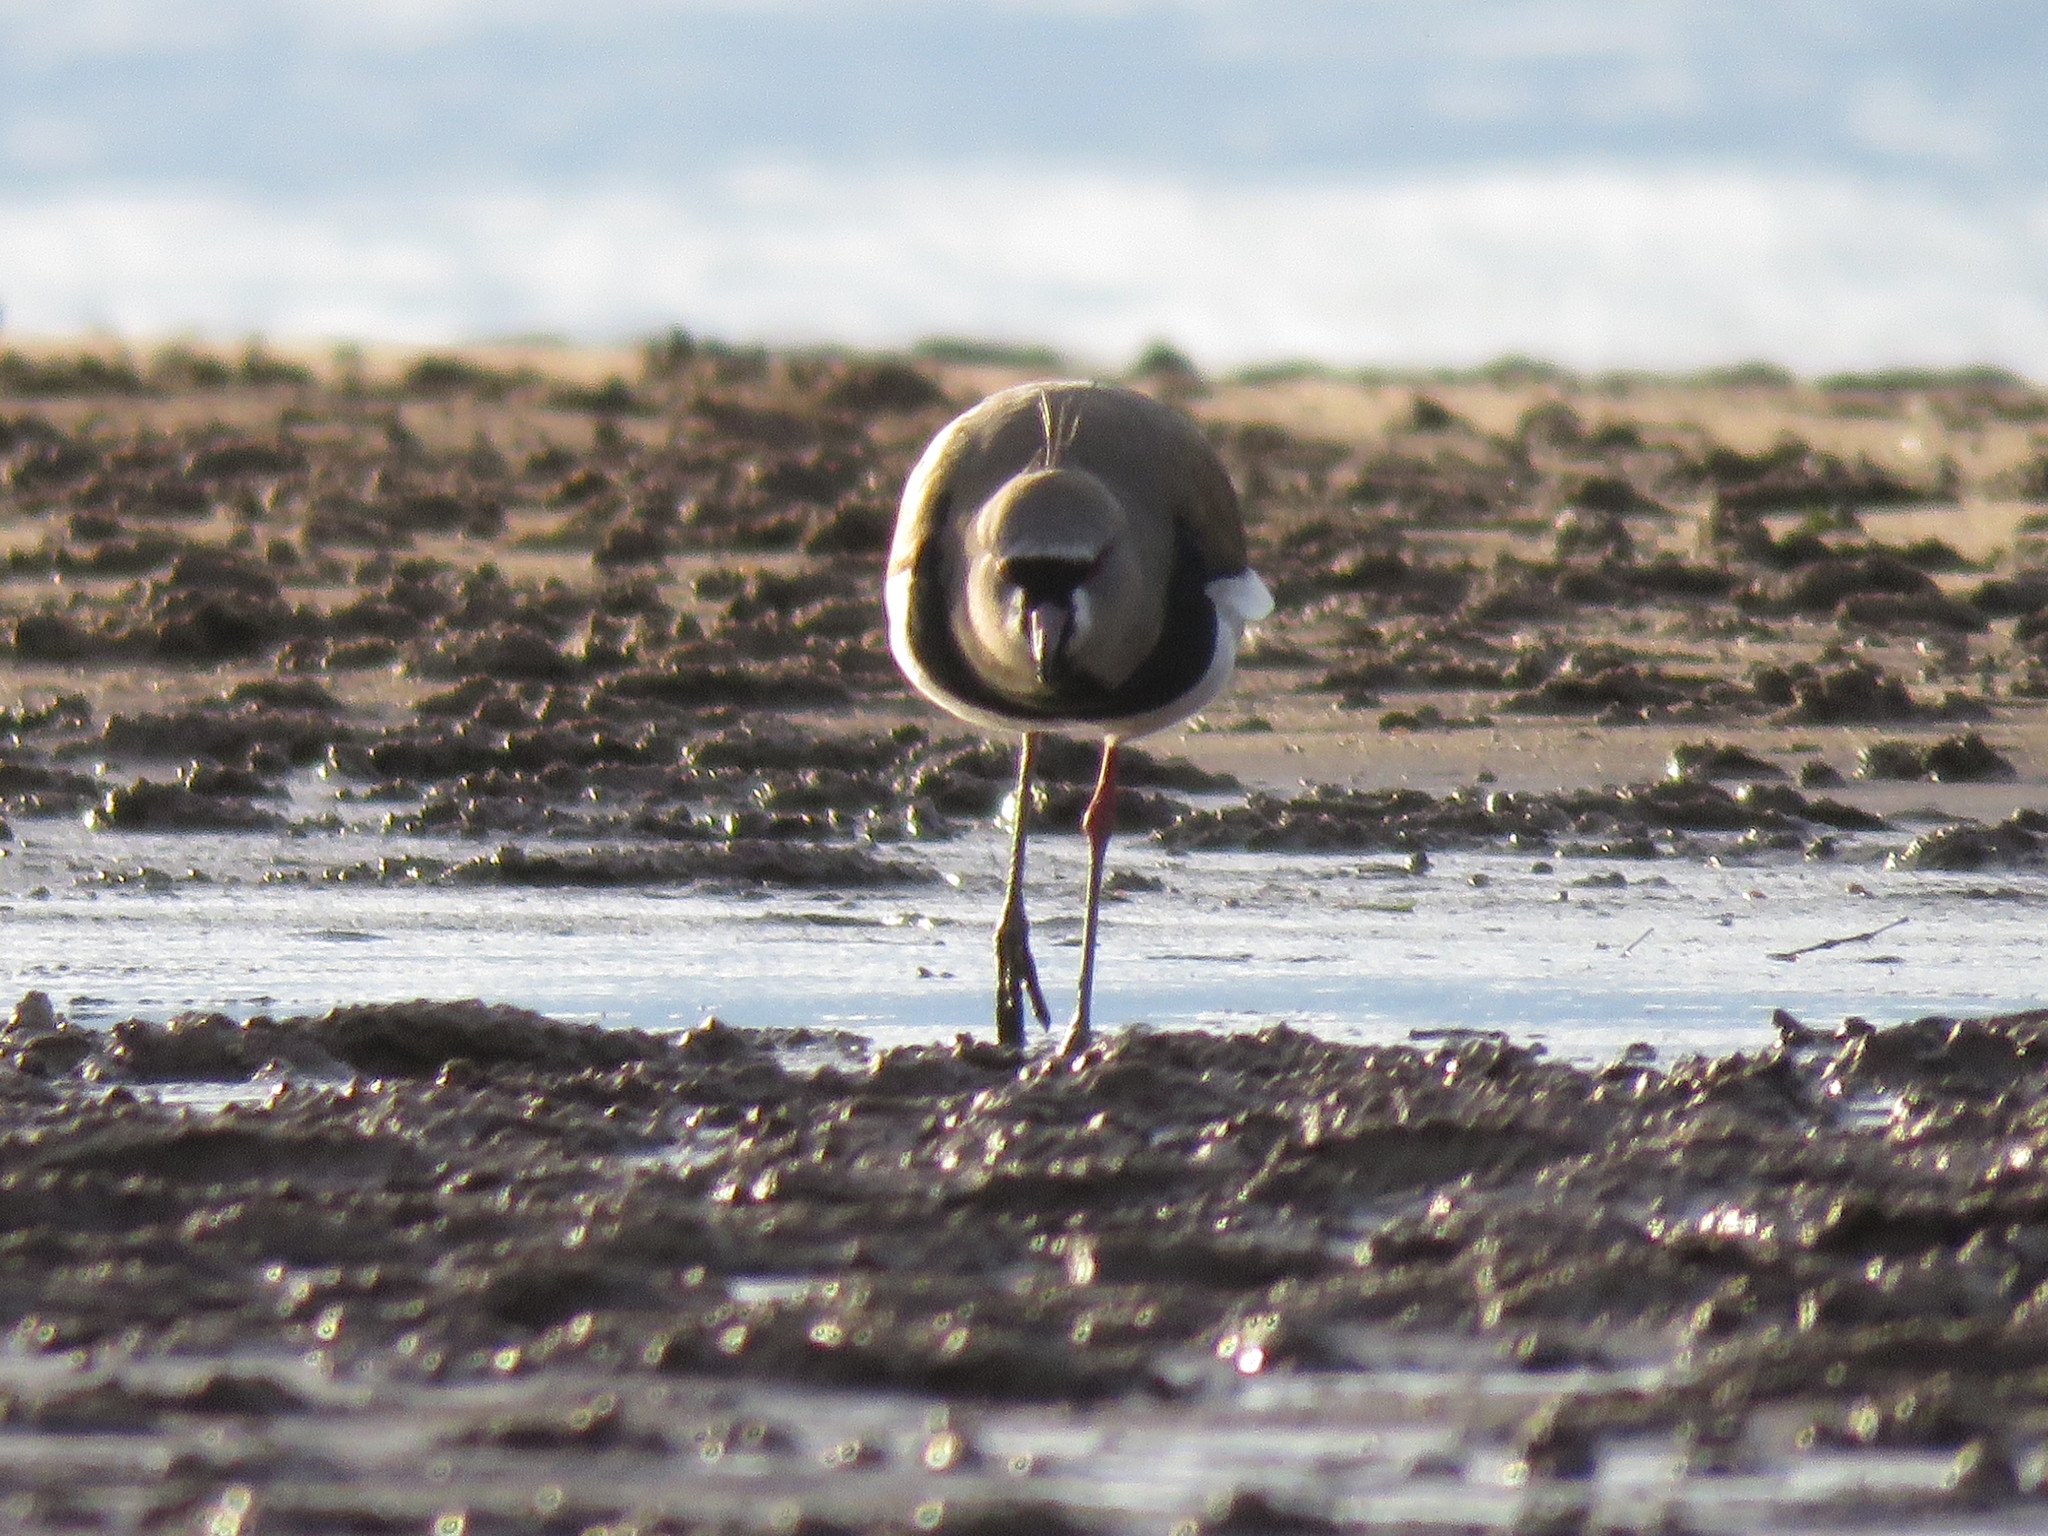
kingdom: Animalia
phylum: Chordata
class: Aves
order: Charadriiformes
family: Charadriidae
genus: Vanellus
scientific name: Vanellus chilensis
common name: Southern lapwing
